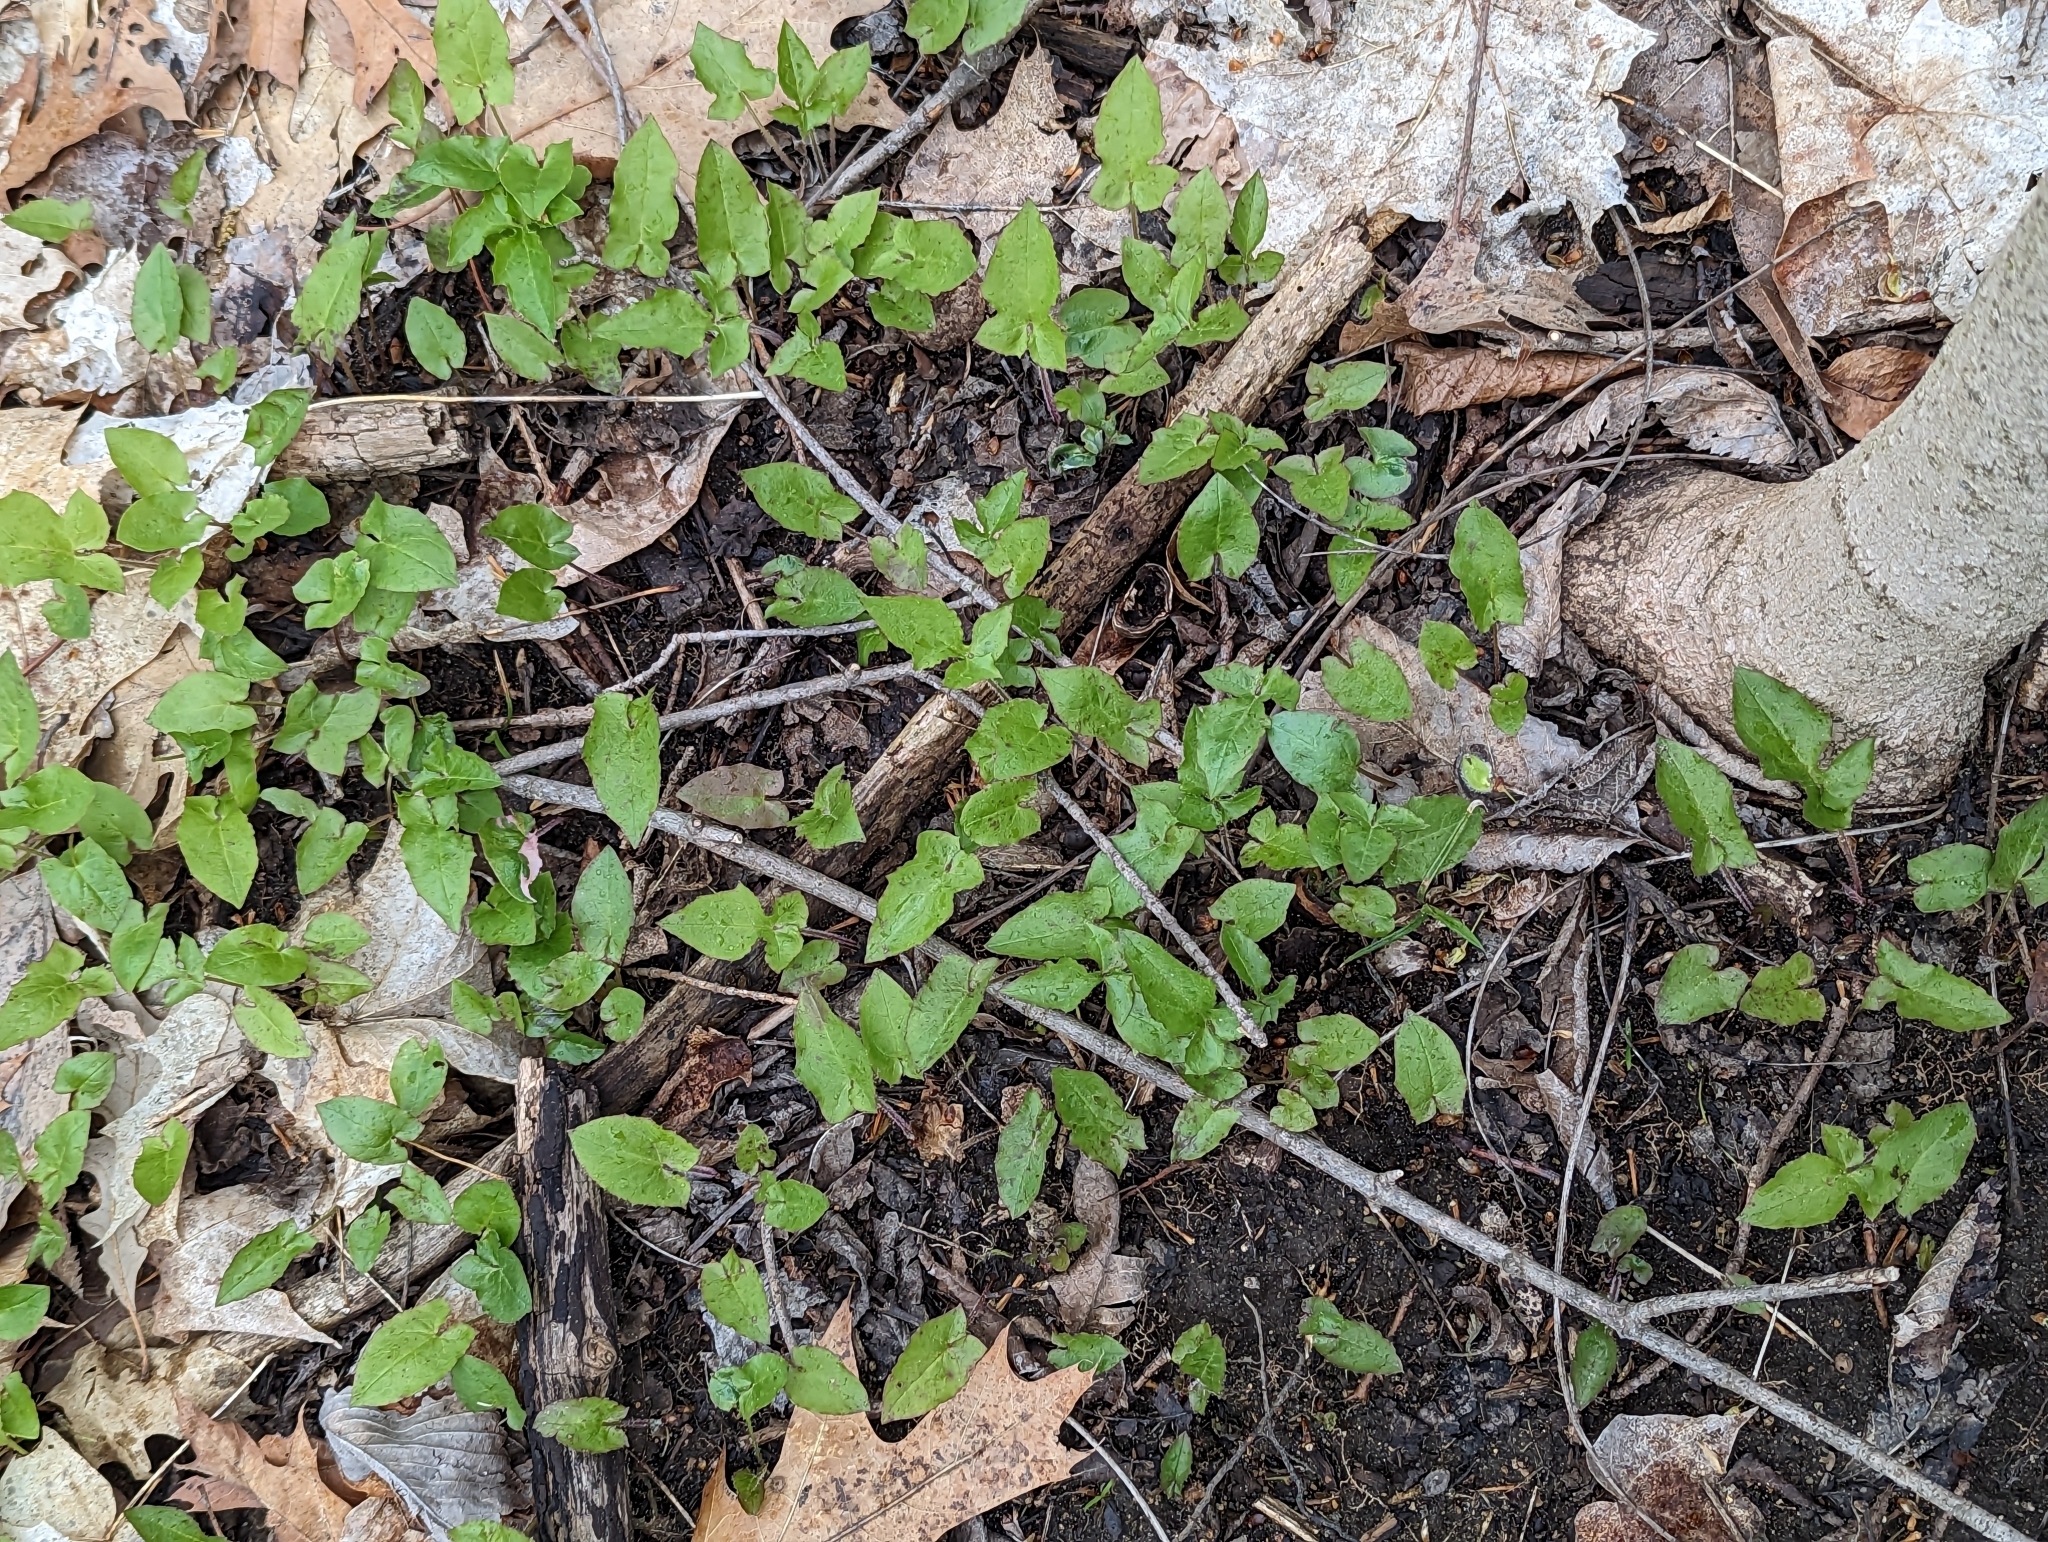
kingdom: Plantae
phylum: Tracheophyta
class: Magnoliopsida
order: Asterales
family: Asteraceae
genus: Nabalus
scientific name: Nabalus altissima
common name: Tall rattlesnakeroot
